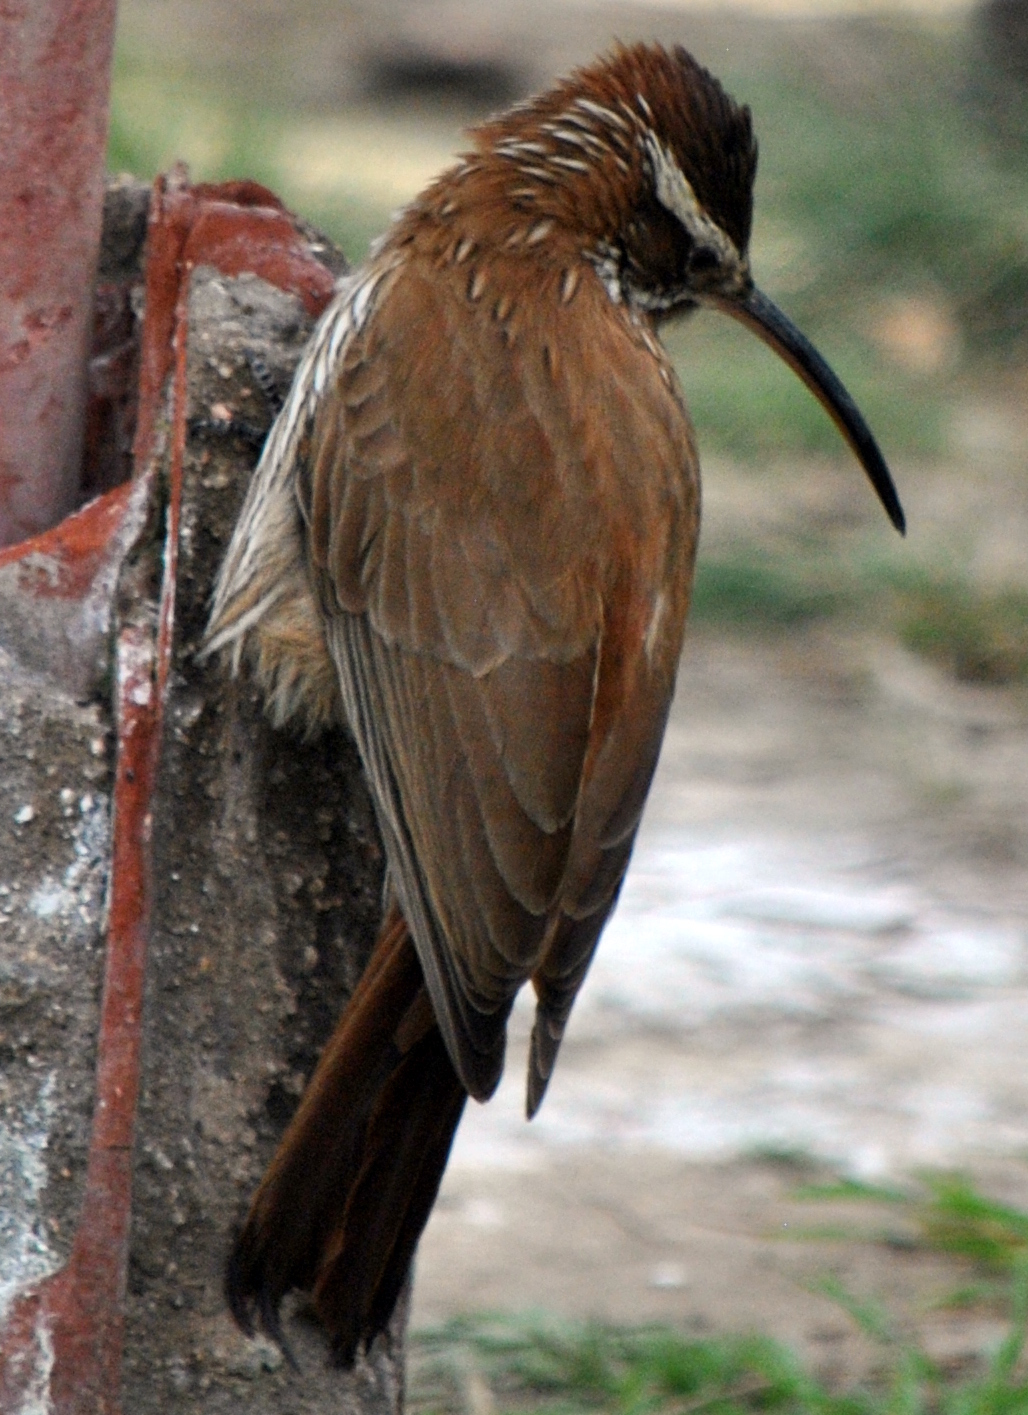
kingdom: Animalia
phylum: Chordata
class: Aves
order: Passeriformes
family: Furnariidae
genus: Drymornis
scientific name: Drymornis bridgesii
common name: Scimitar-billed woodcreeper
